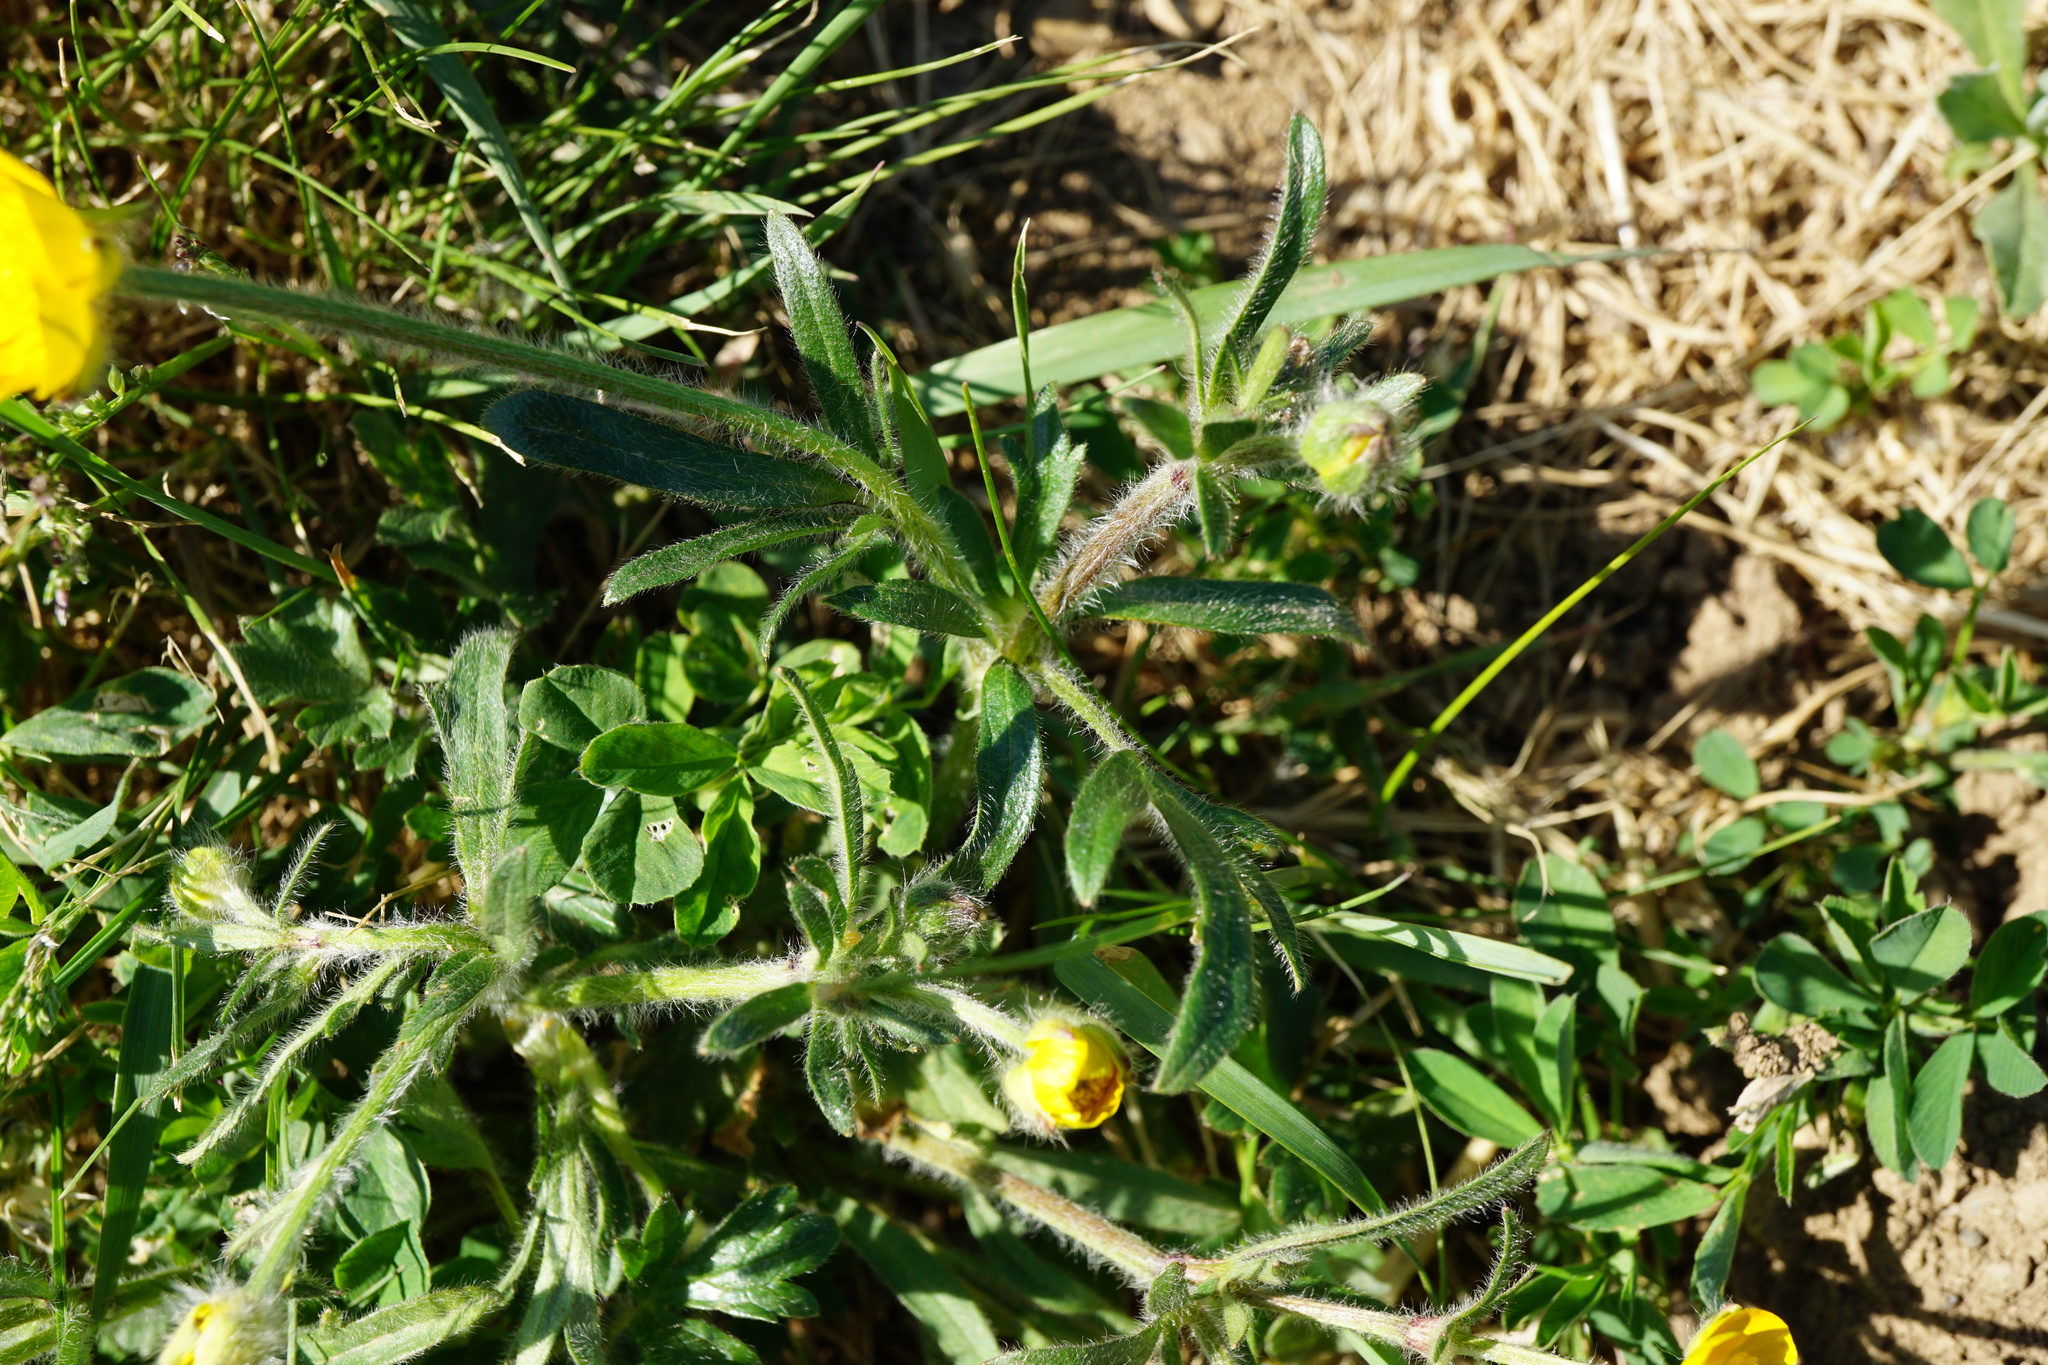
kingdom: Plantae
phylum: Tracheophyta
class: Magnoliopsida
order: Ranunculales
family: Ranunculaceae
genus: Ranunculus
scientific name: Ranunculus bulbosus
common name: Bulbous buttercup
